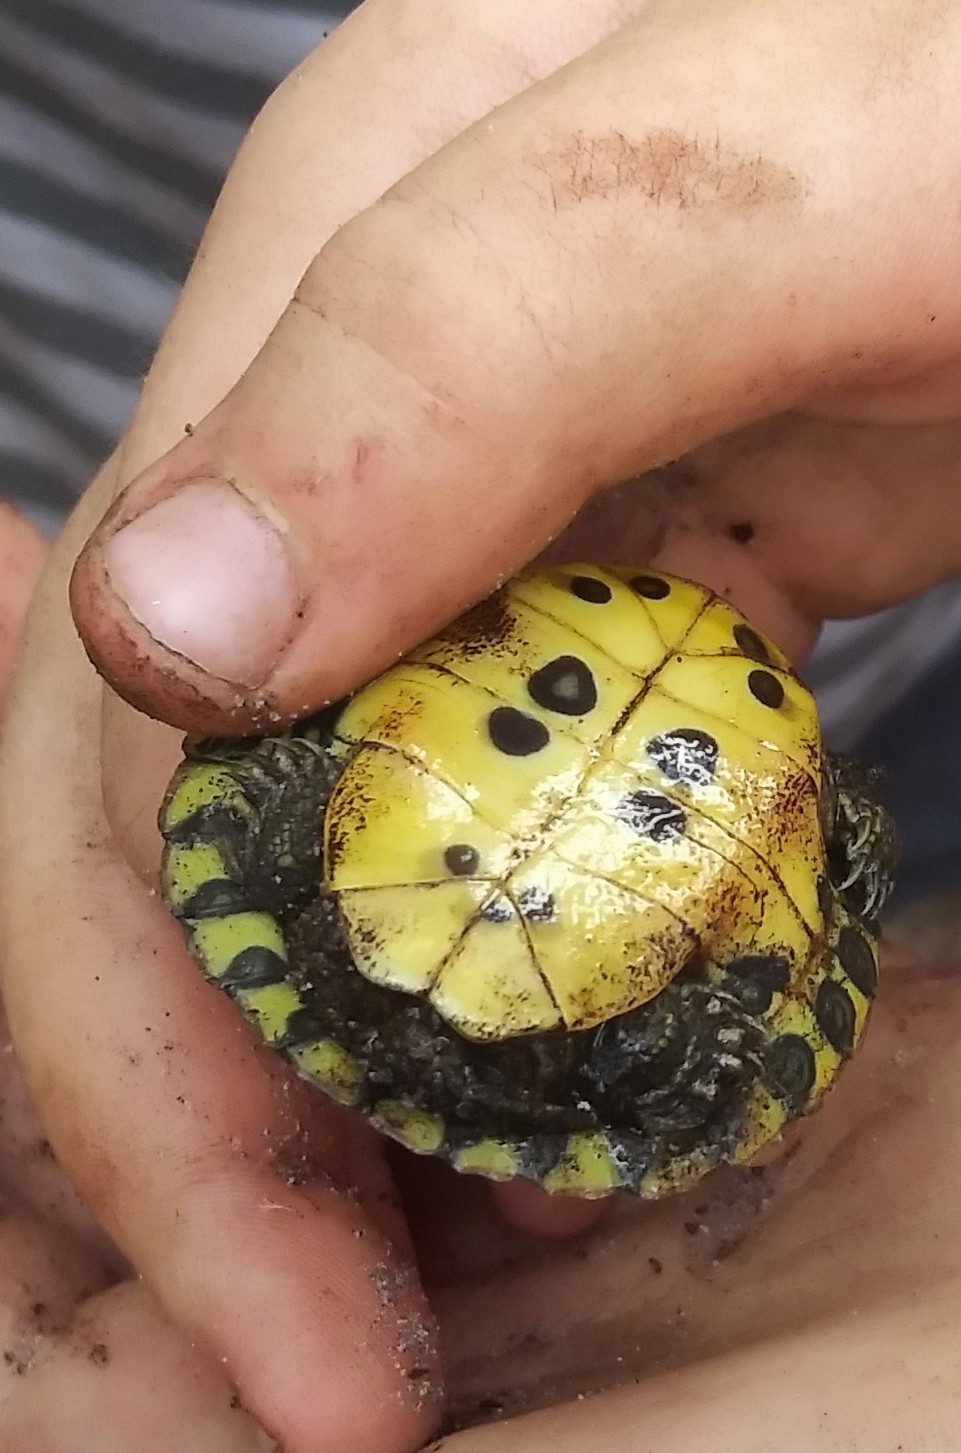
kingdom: Animalia
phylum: Chordata
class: Testudines
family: Emydidae
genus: Trachemys
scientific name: Trachemys scripta
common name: Slider
